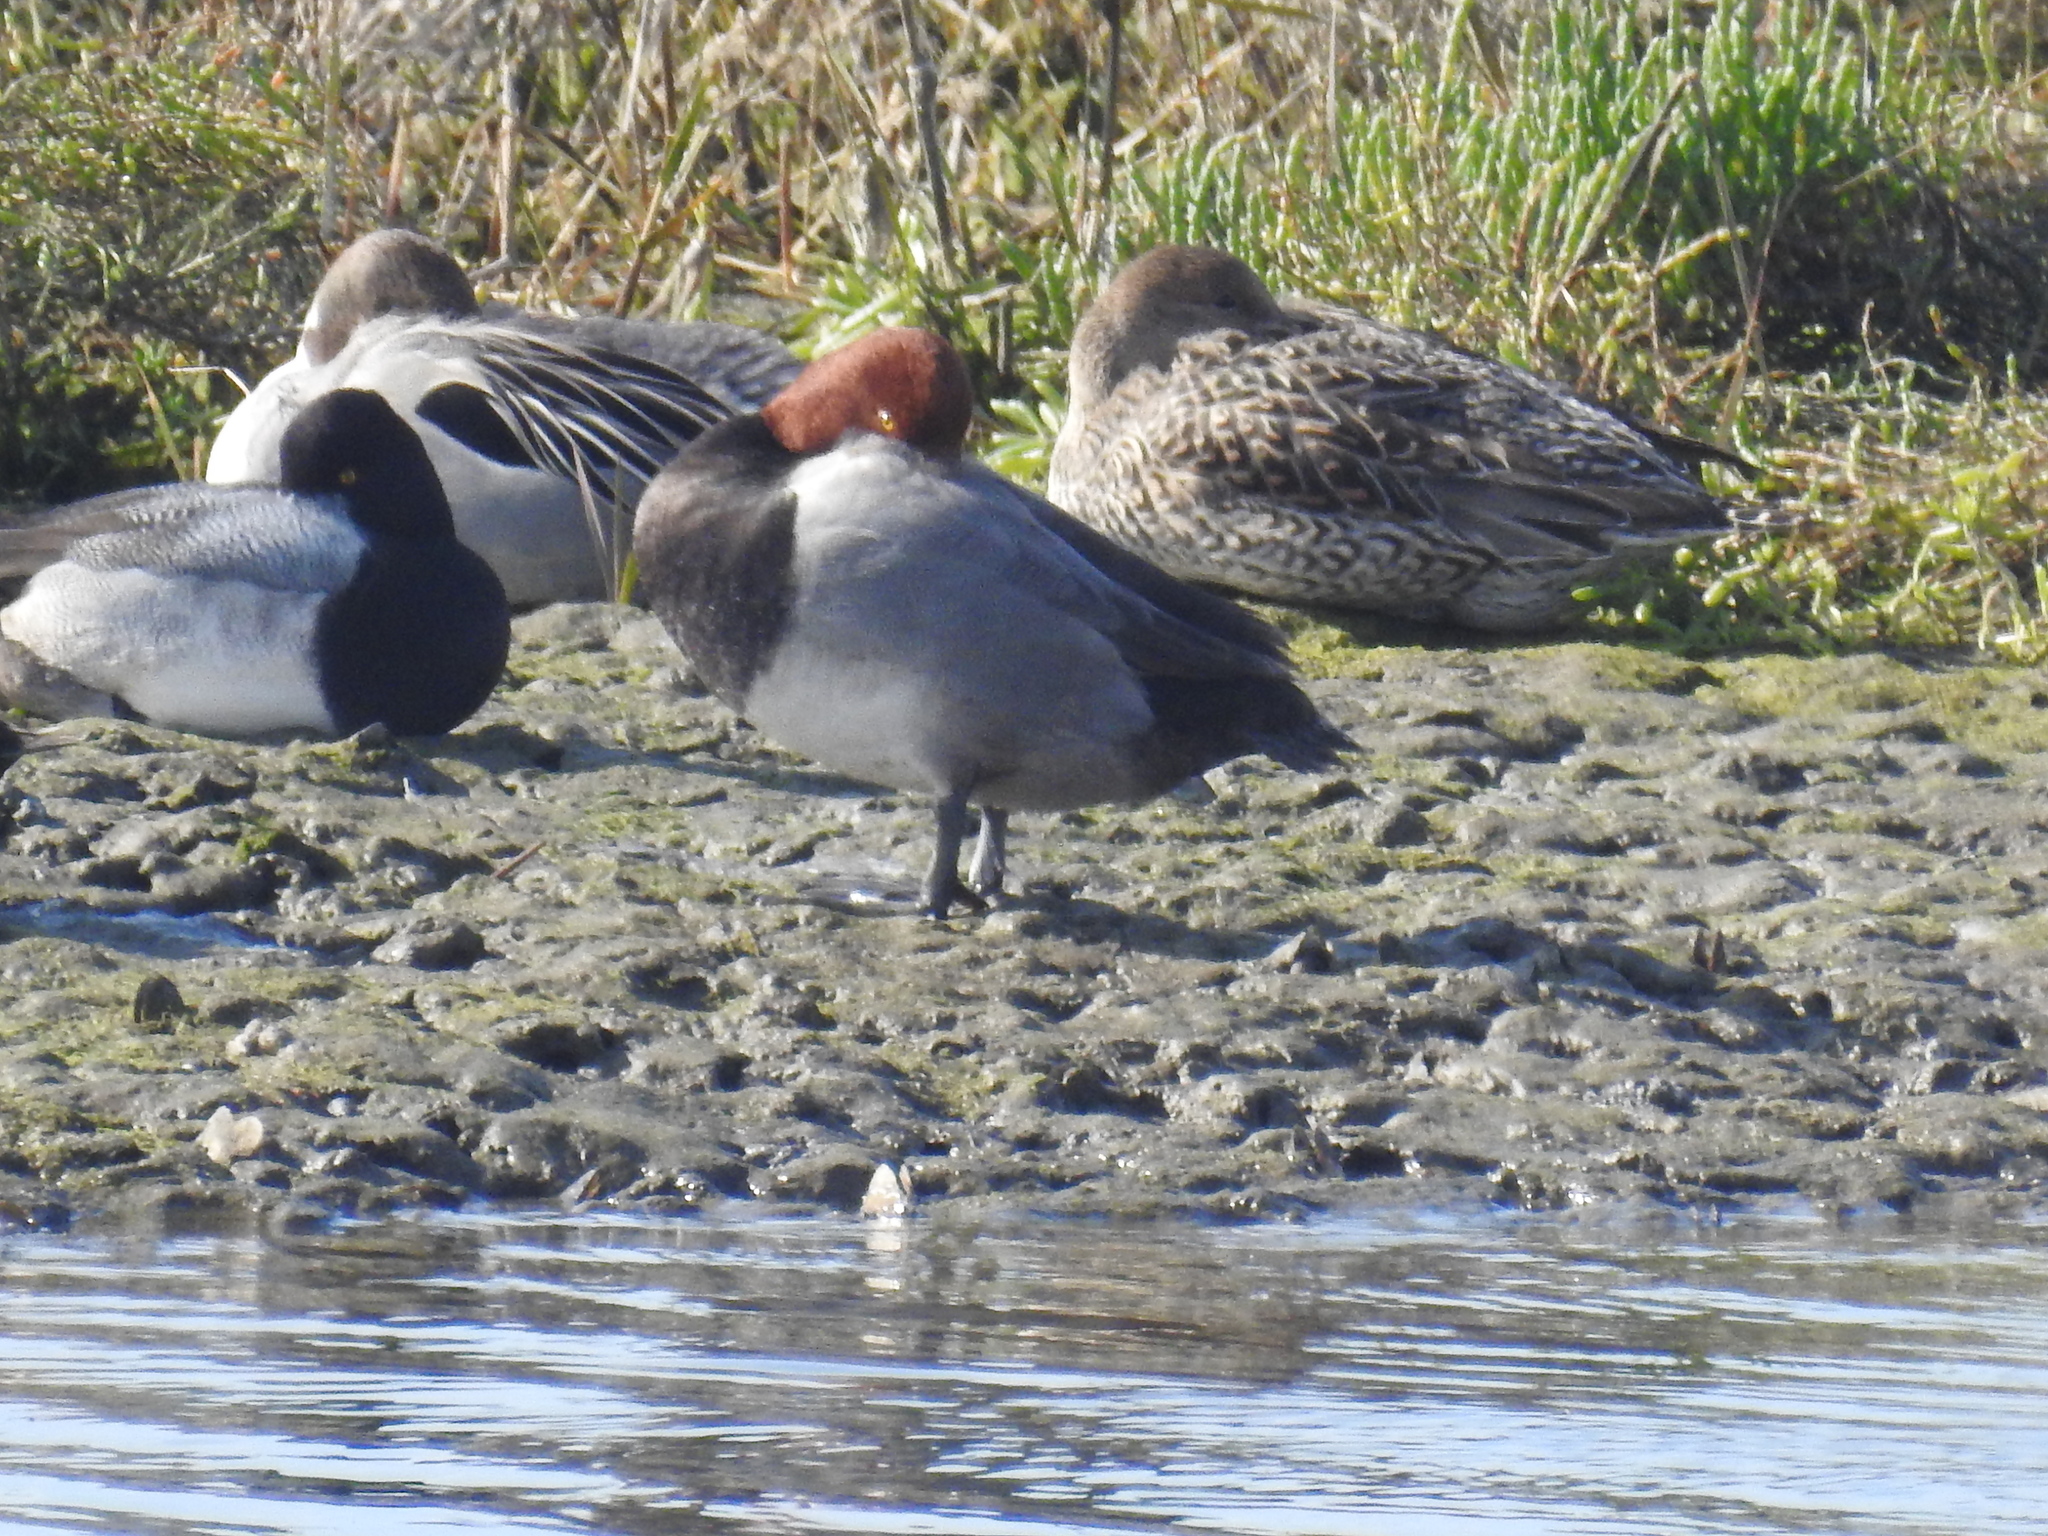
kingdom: Animalia
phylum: Chordata
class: Aves
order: Anseriformes
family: Anatidae
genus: Aythya
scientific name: Aythya americana
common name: Redhead
